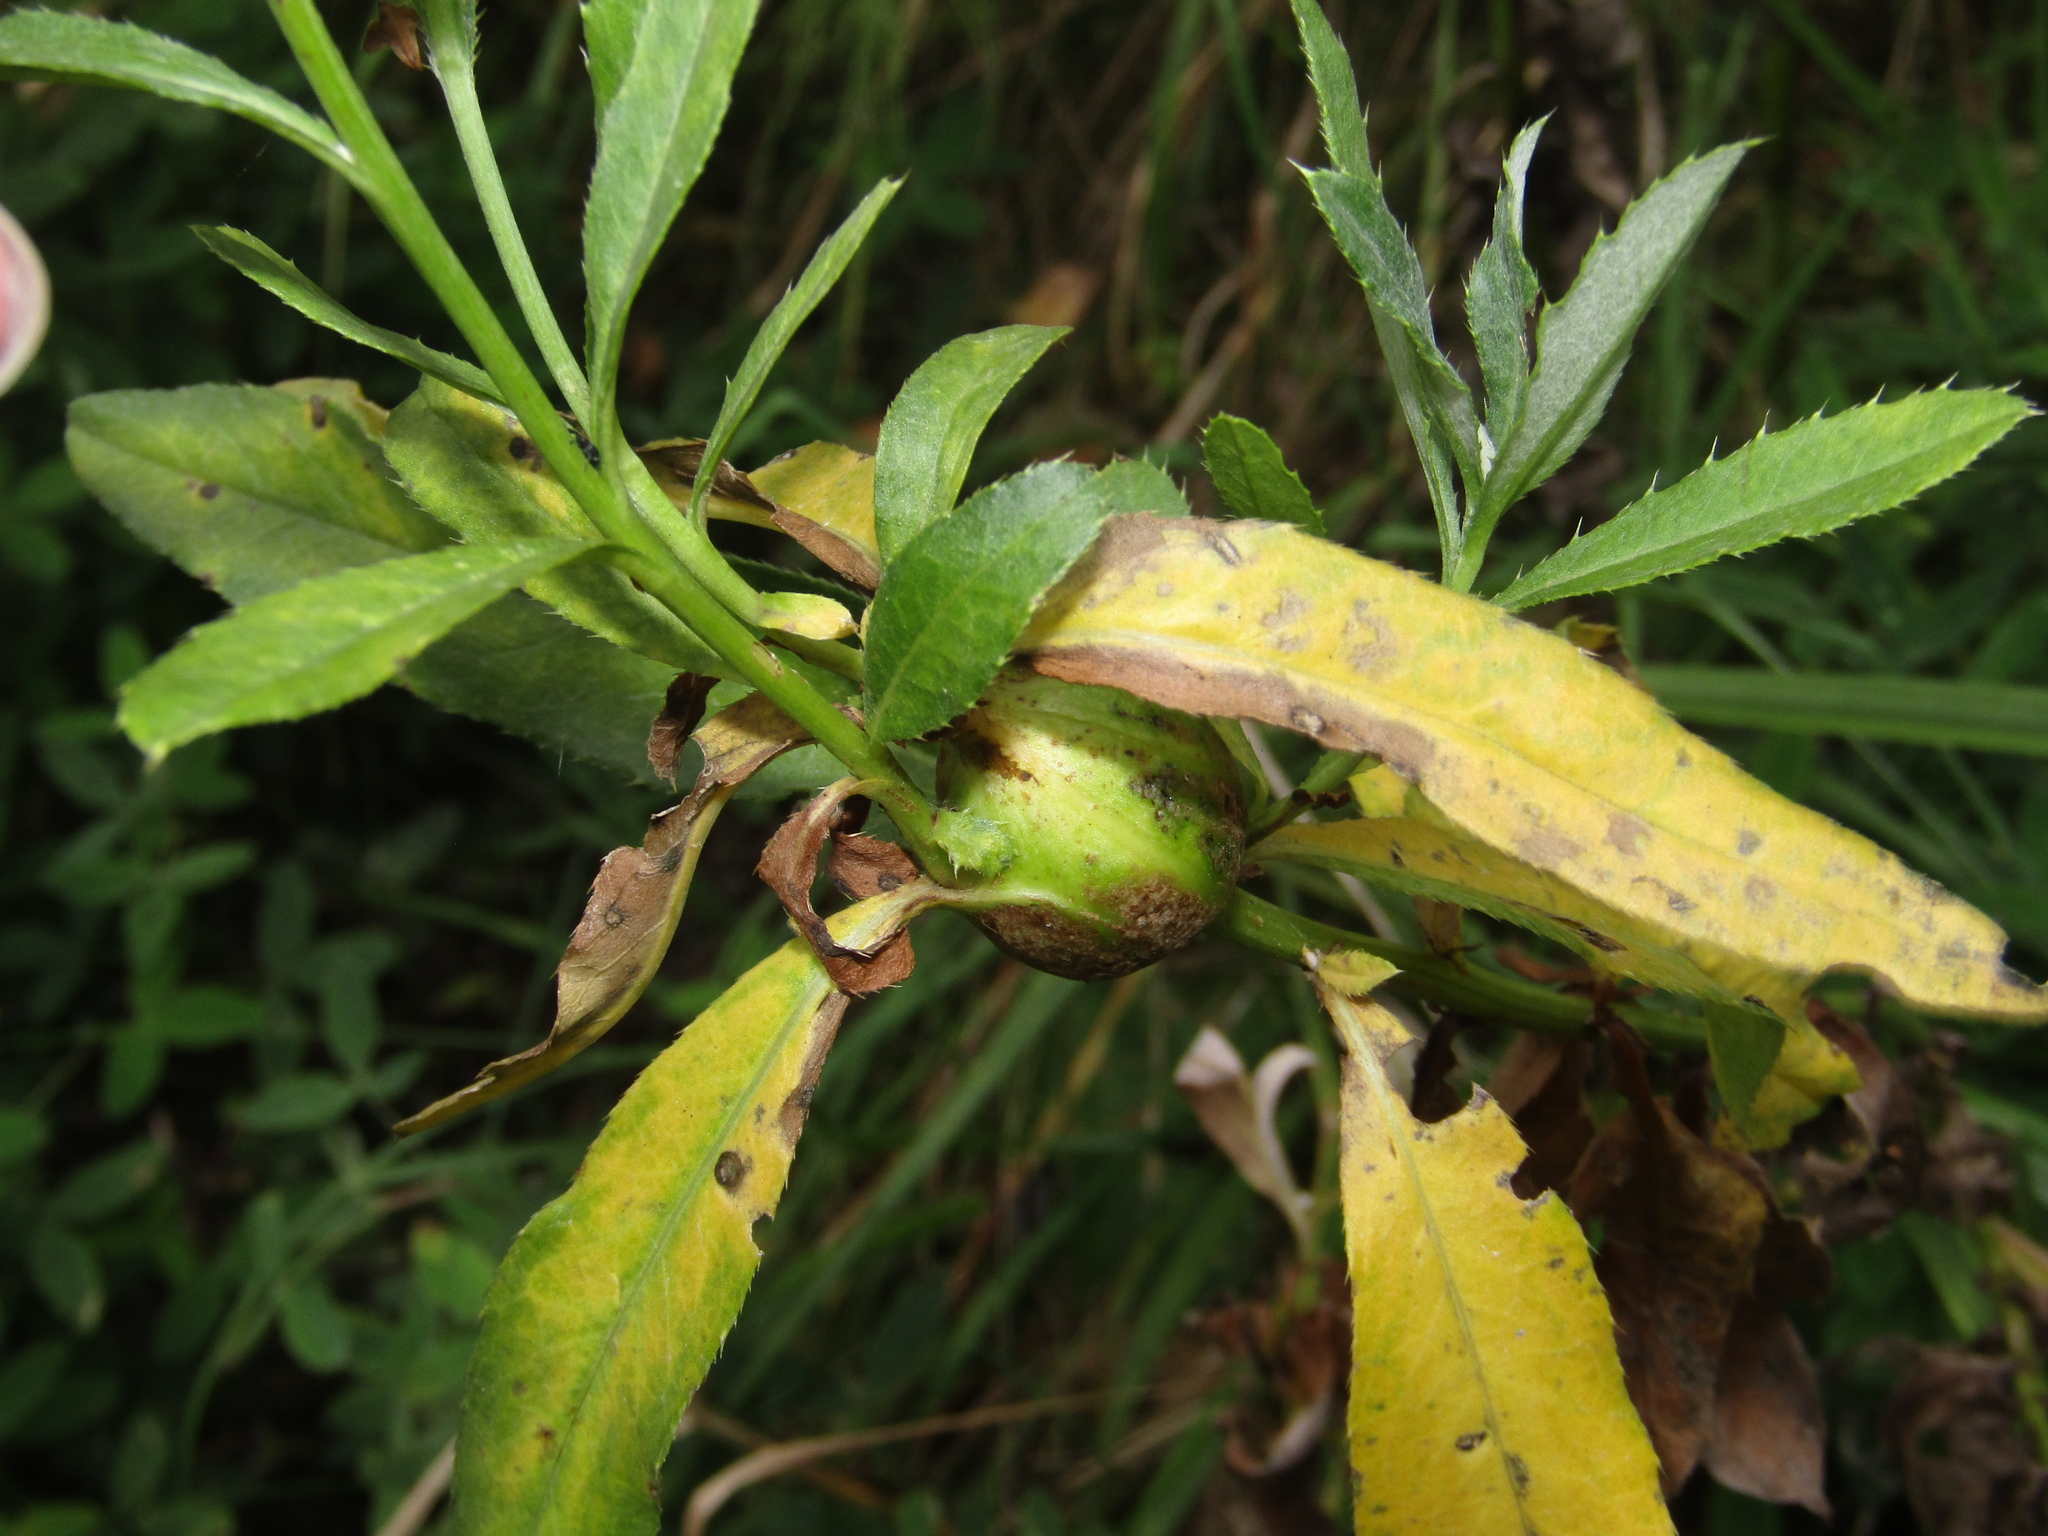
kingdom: Animalia
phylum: Arthropoda
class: Insecta
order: Diptera
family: Tephritidae
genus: Urophora
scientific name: Urophora cardui
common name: Fruit fly
